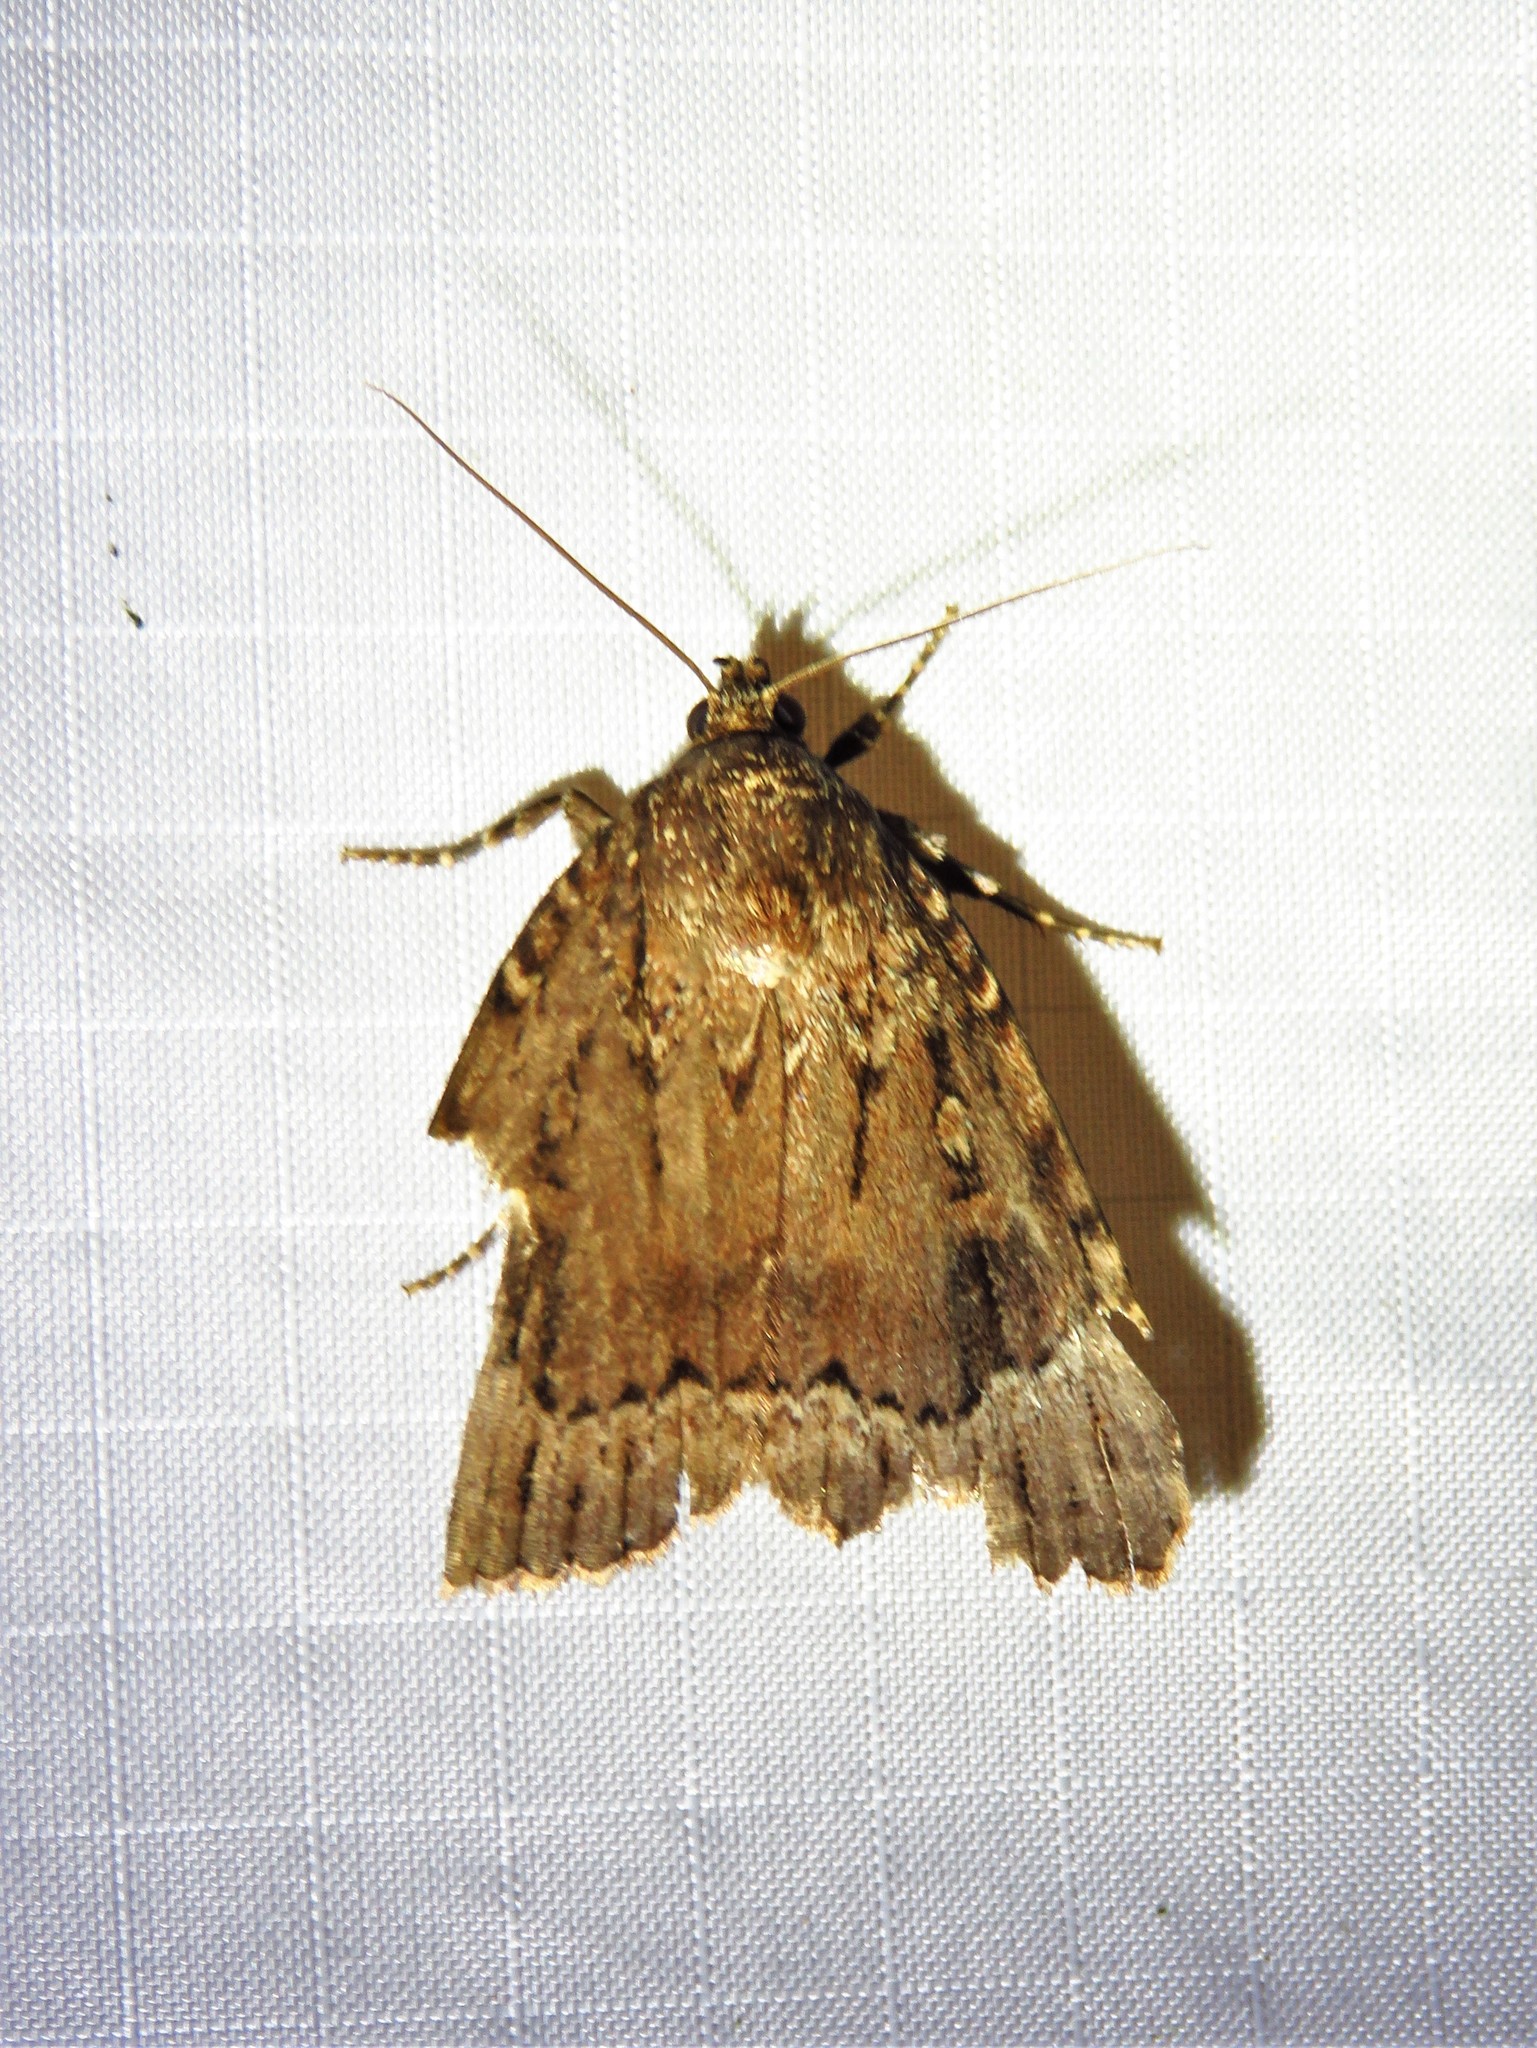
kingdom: Animalia
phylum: Arthropoda
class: Insecta
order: Lepidoptera
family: Noctuidae
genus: Amphipyra
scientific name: Amphipyra pyramidoides
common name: American copper underwing
